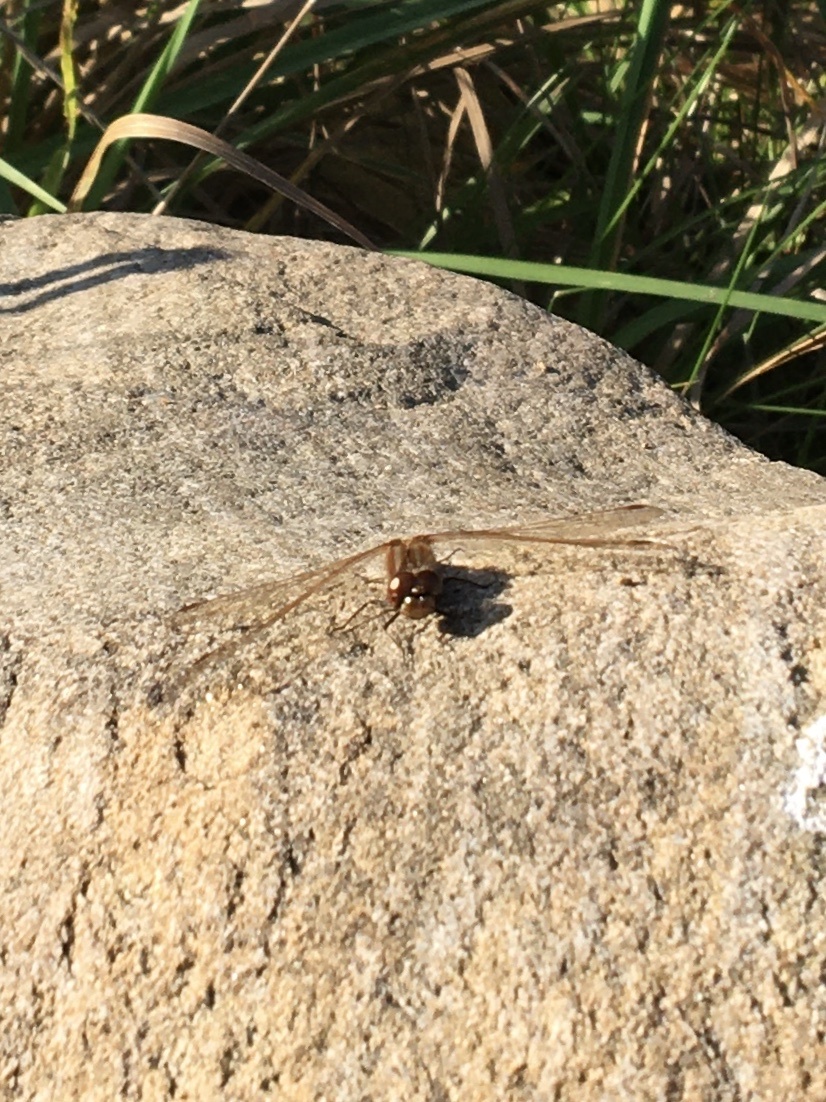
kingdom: Animalia
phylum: Arthropoda
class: Insecta
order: Odonata
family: Libellulidae
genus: Sympetrum
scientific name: Sympetrum striolatum
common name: Common darter
